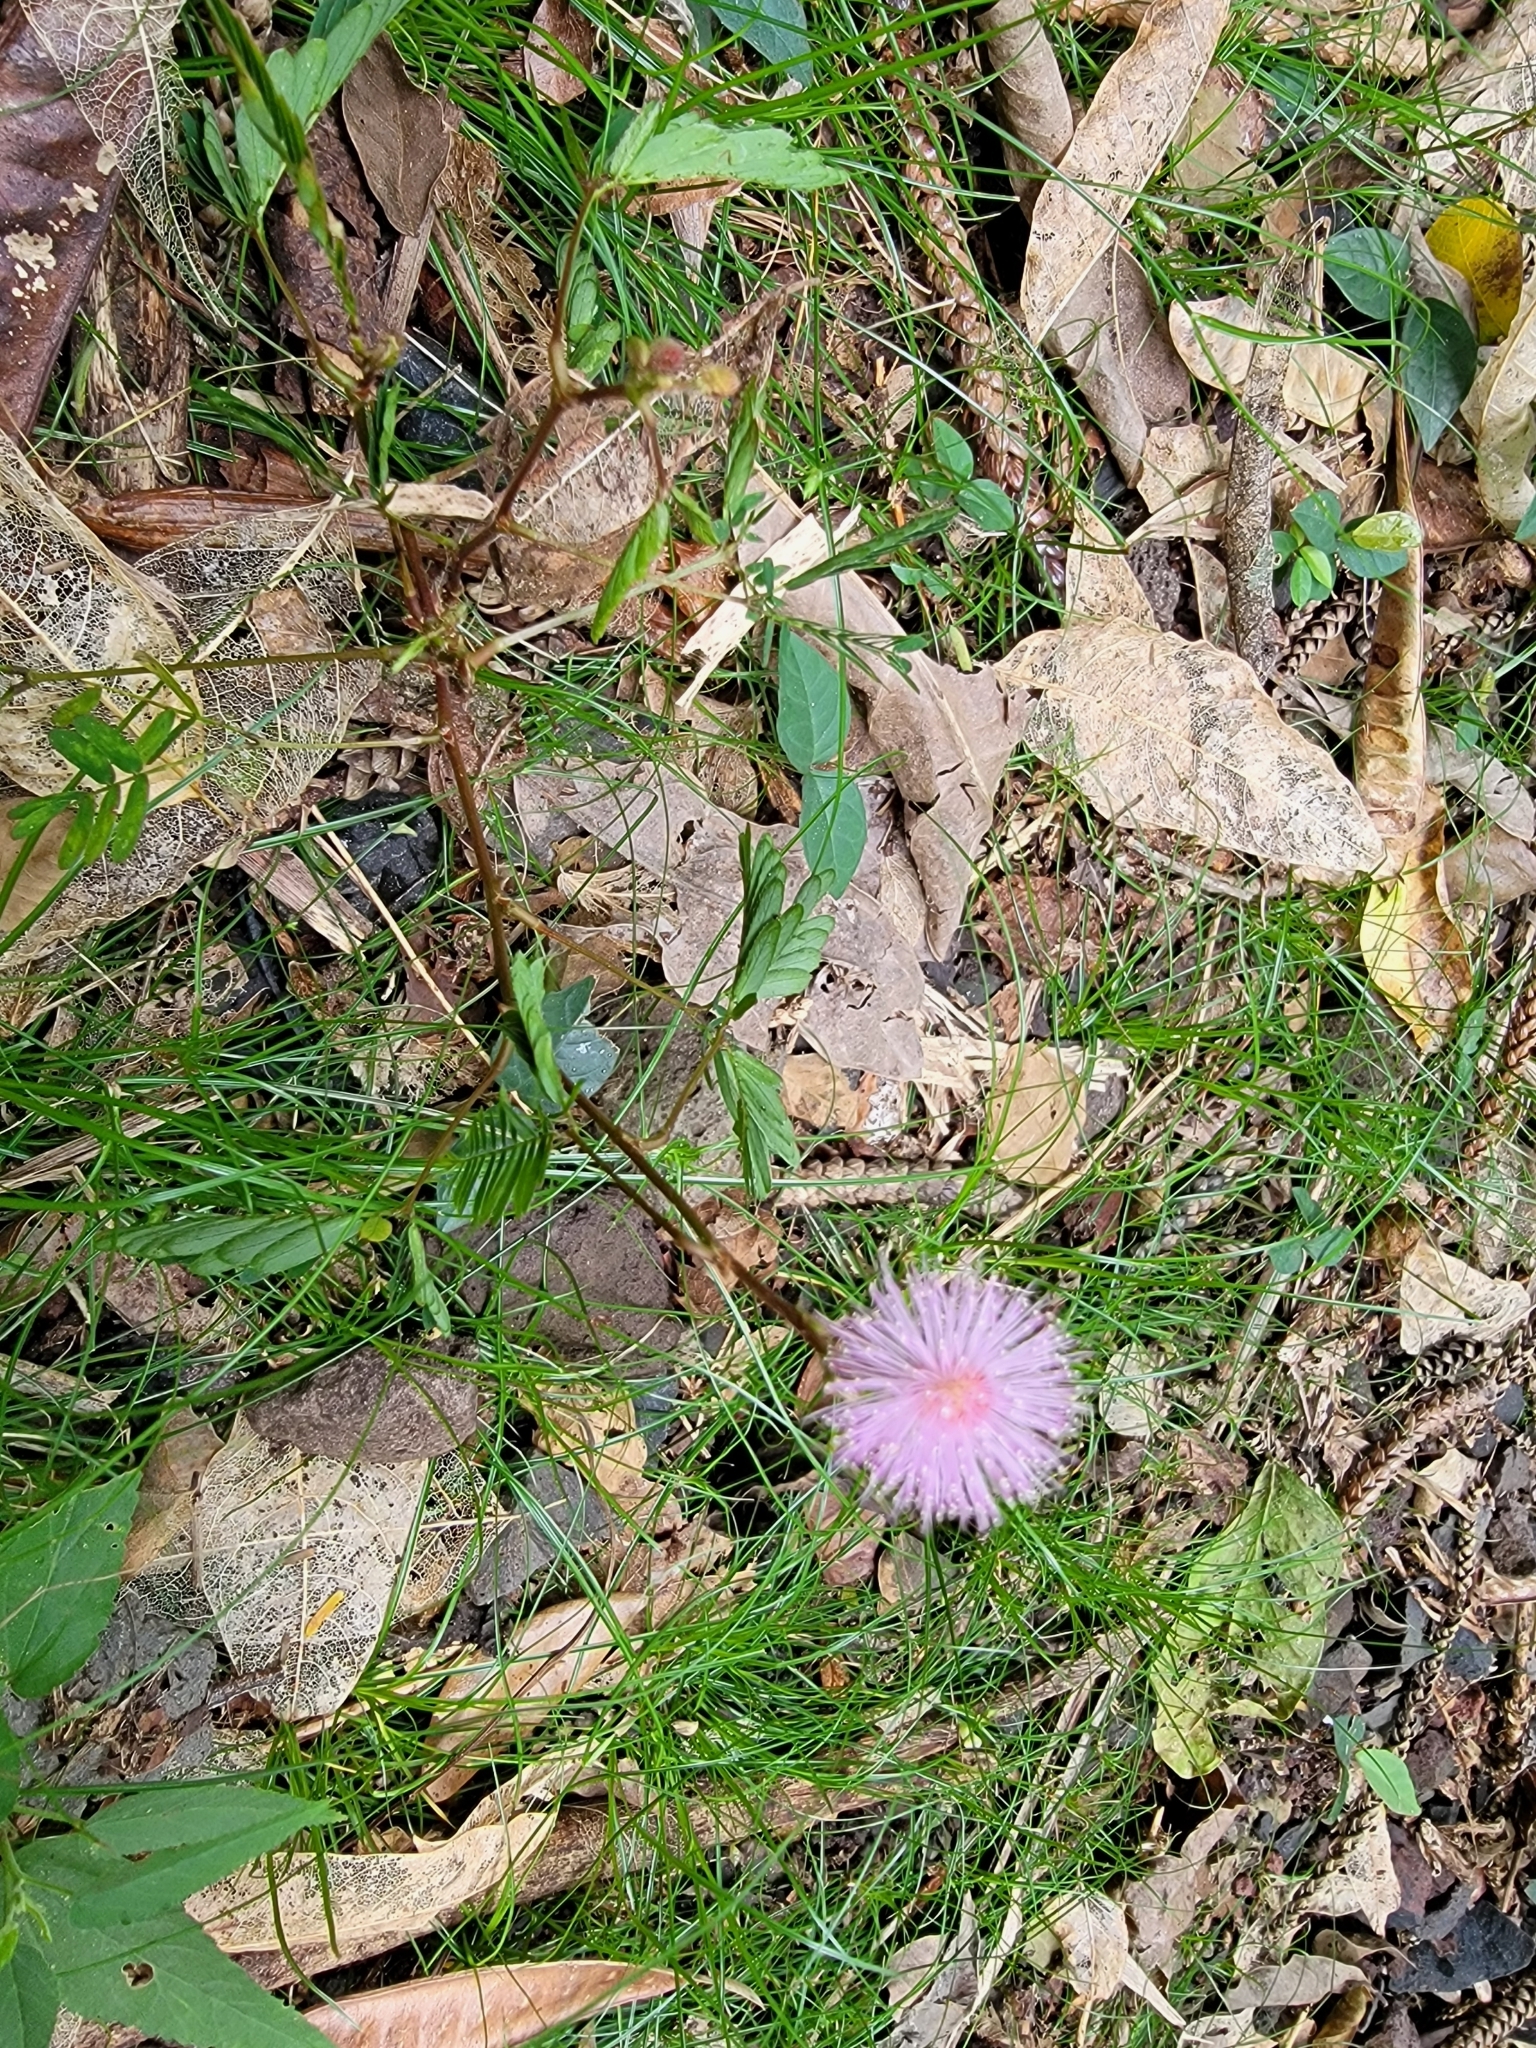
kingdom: Plantae
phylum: Tracheophyta
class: Magnoliopsida
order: Fabales
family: Fabaceae
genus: Mimosa
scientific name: Mimosa pudica
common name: Sensitive plant
